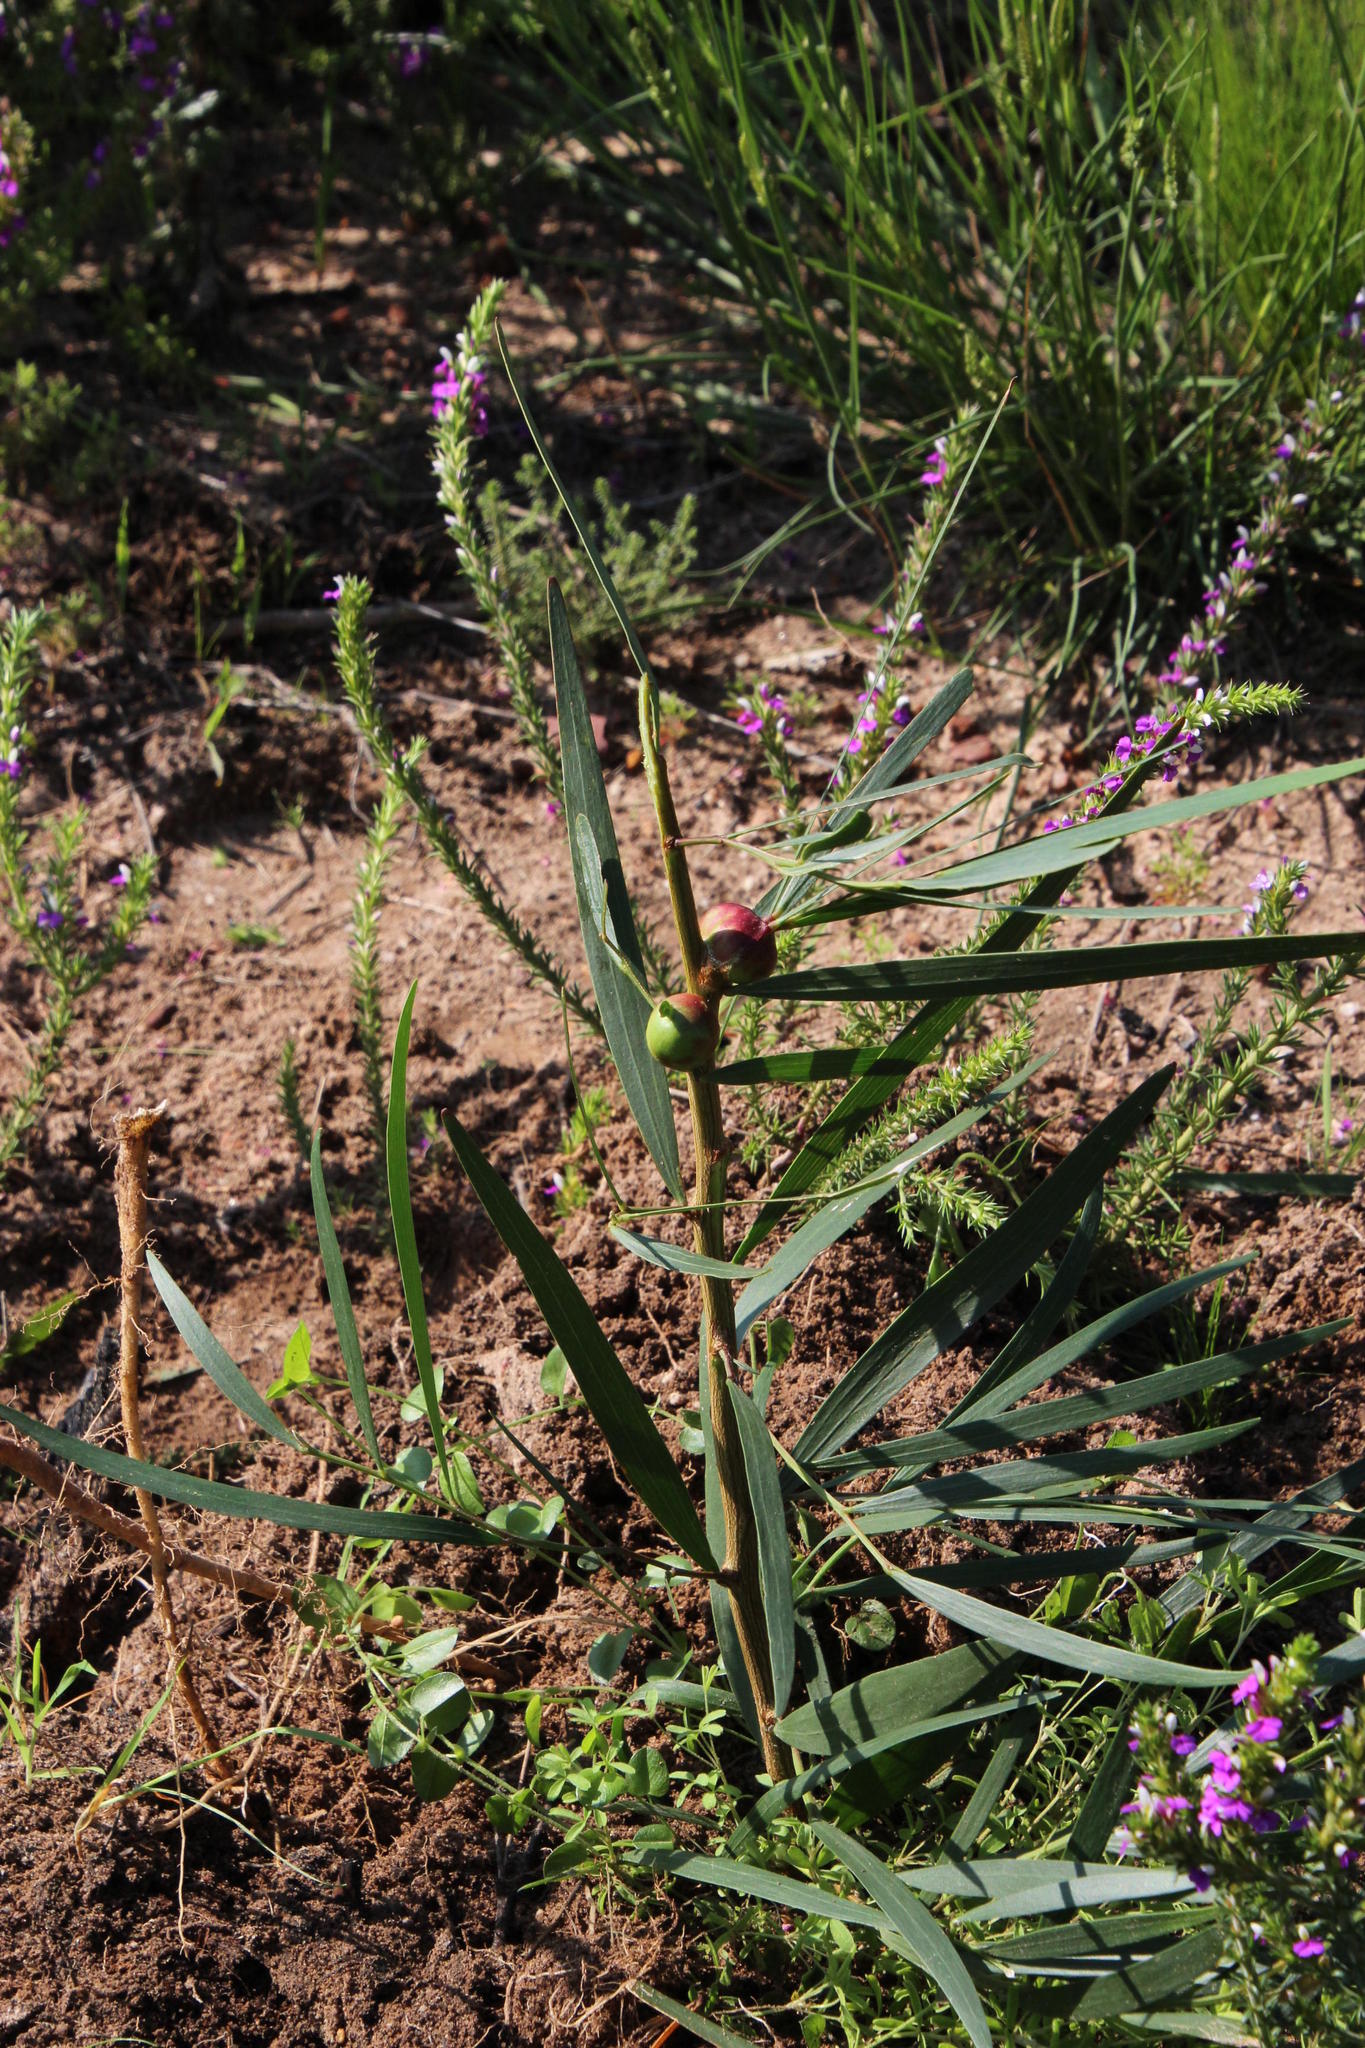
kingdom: Animalia
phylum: Arthropoda
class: Insecta
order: Hymenoptera
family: Pteromalidae
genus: Trichilogaster
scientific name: Trichilogaster acaciaelongifoliae
